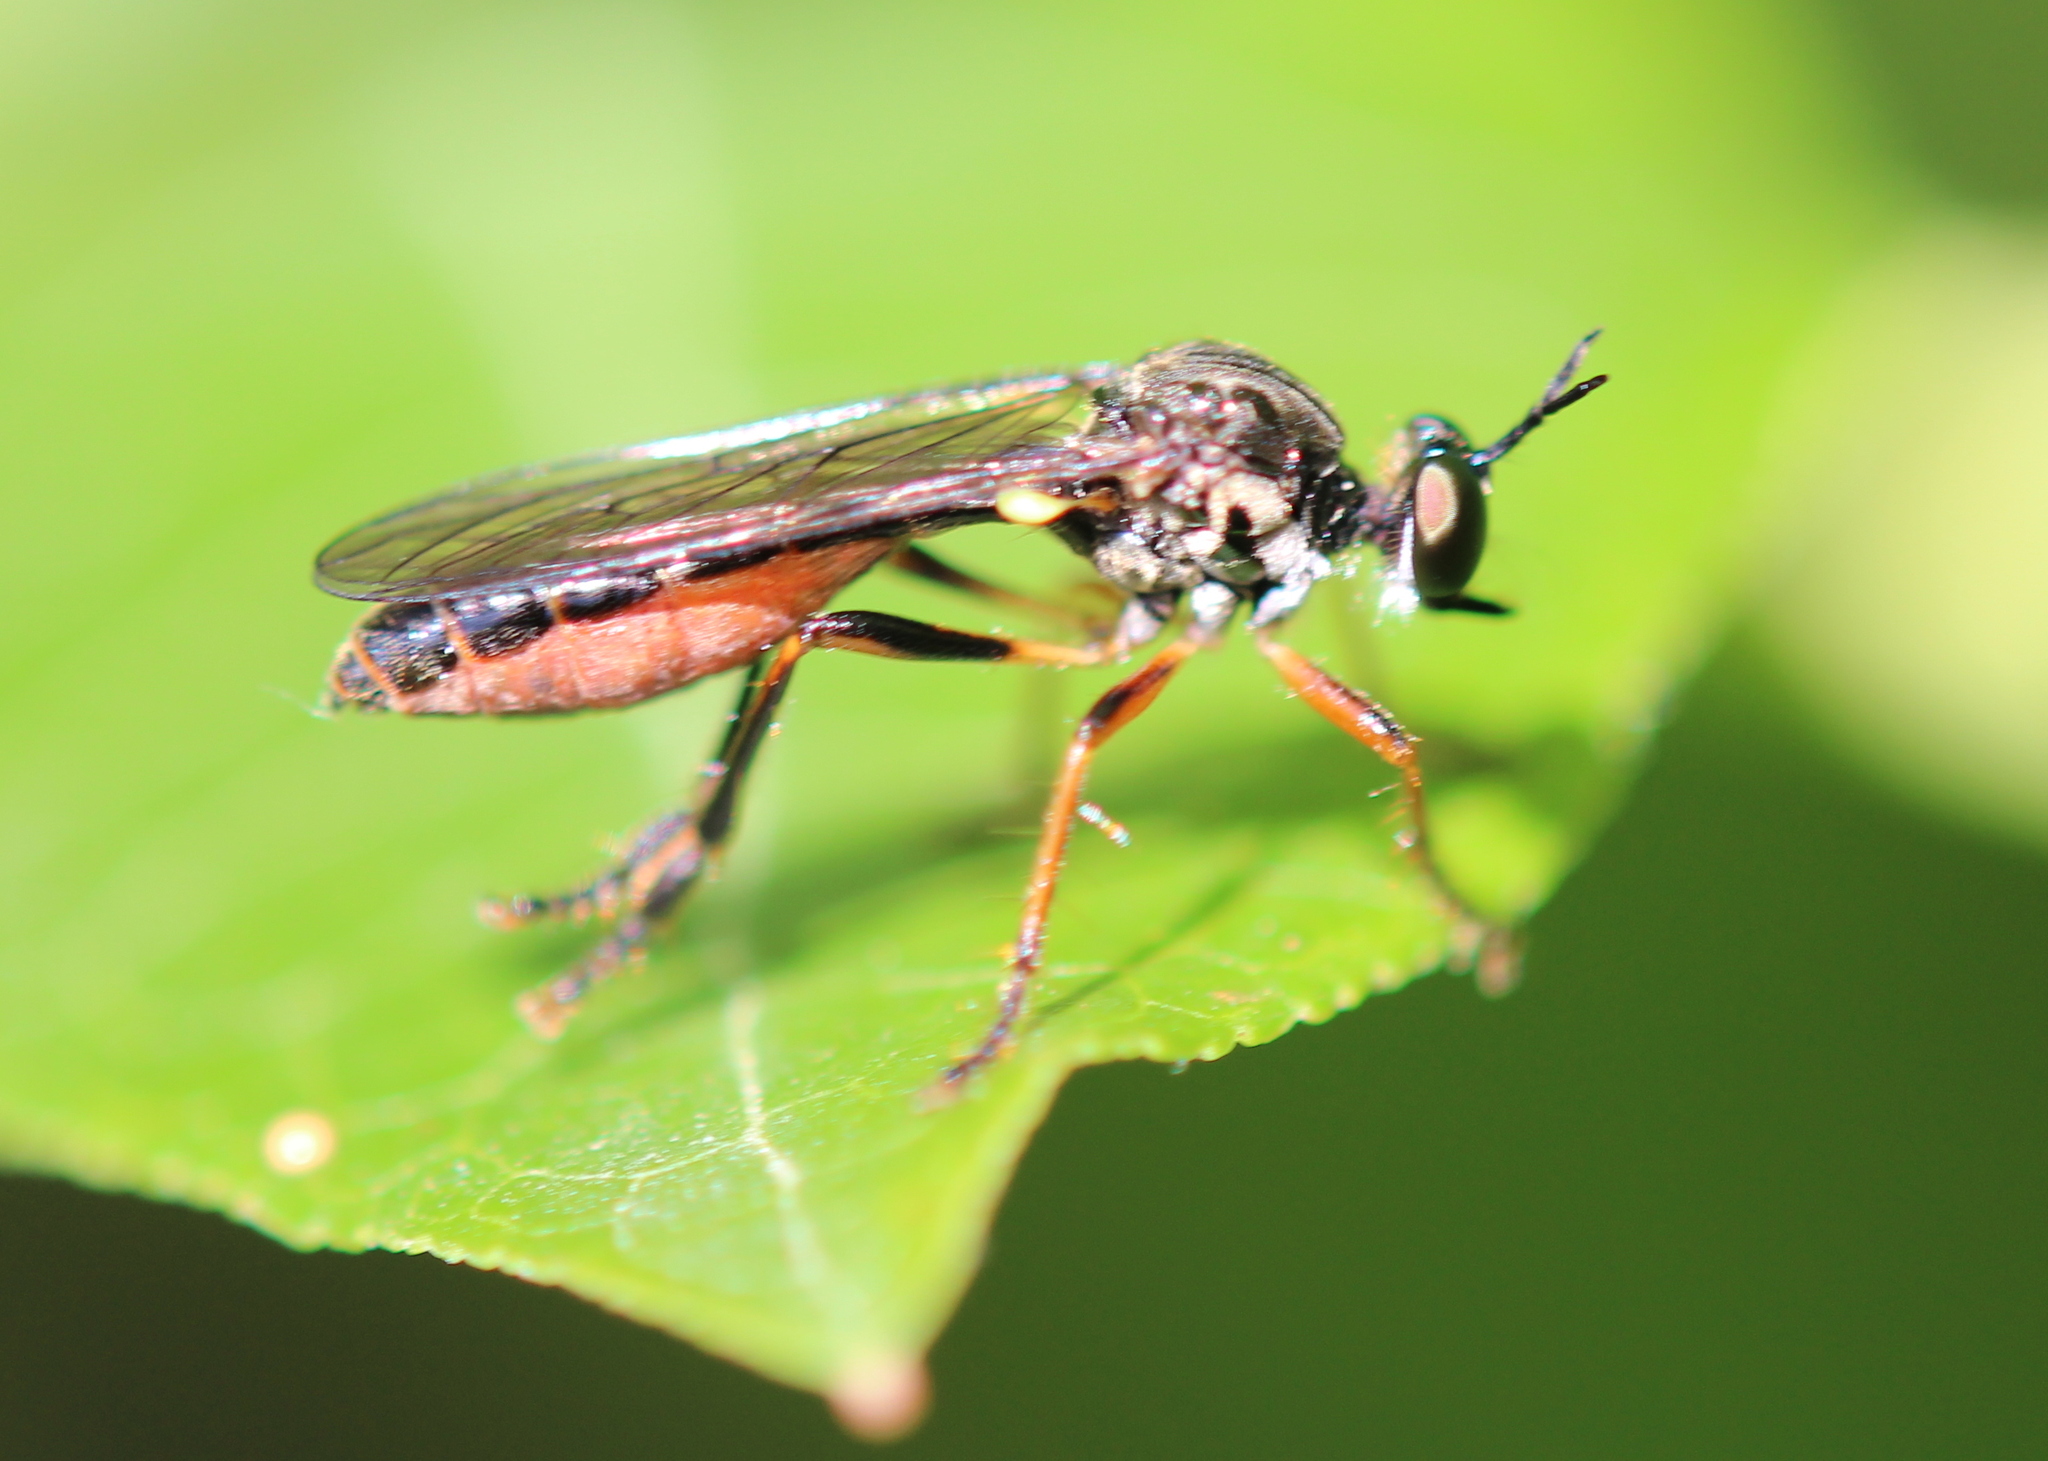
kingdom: Animalia
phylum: Arthropoda
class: Insecta
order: Diptera
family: Asilidae
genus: Dioctria
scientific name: Dioctria hyalipennis
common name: Stripe-legged robberfly
